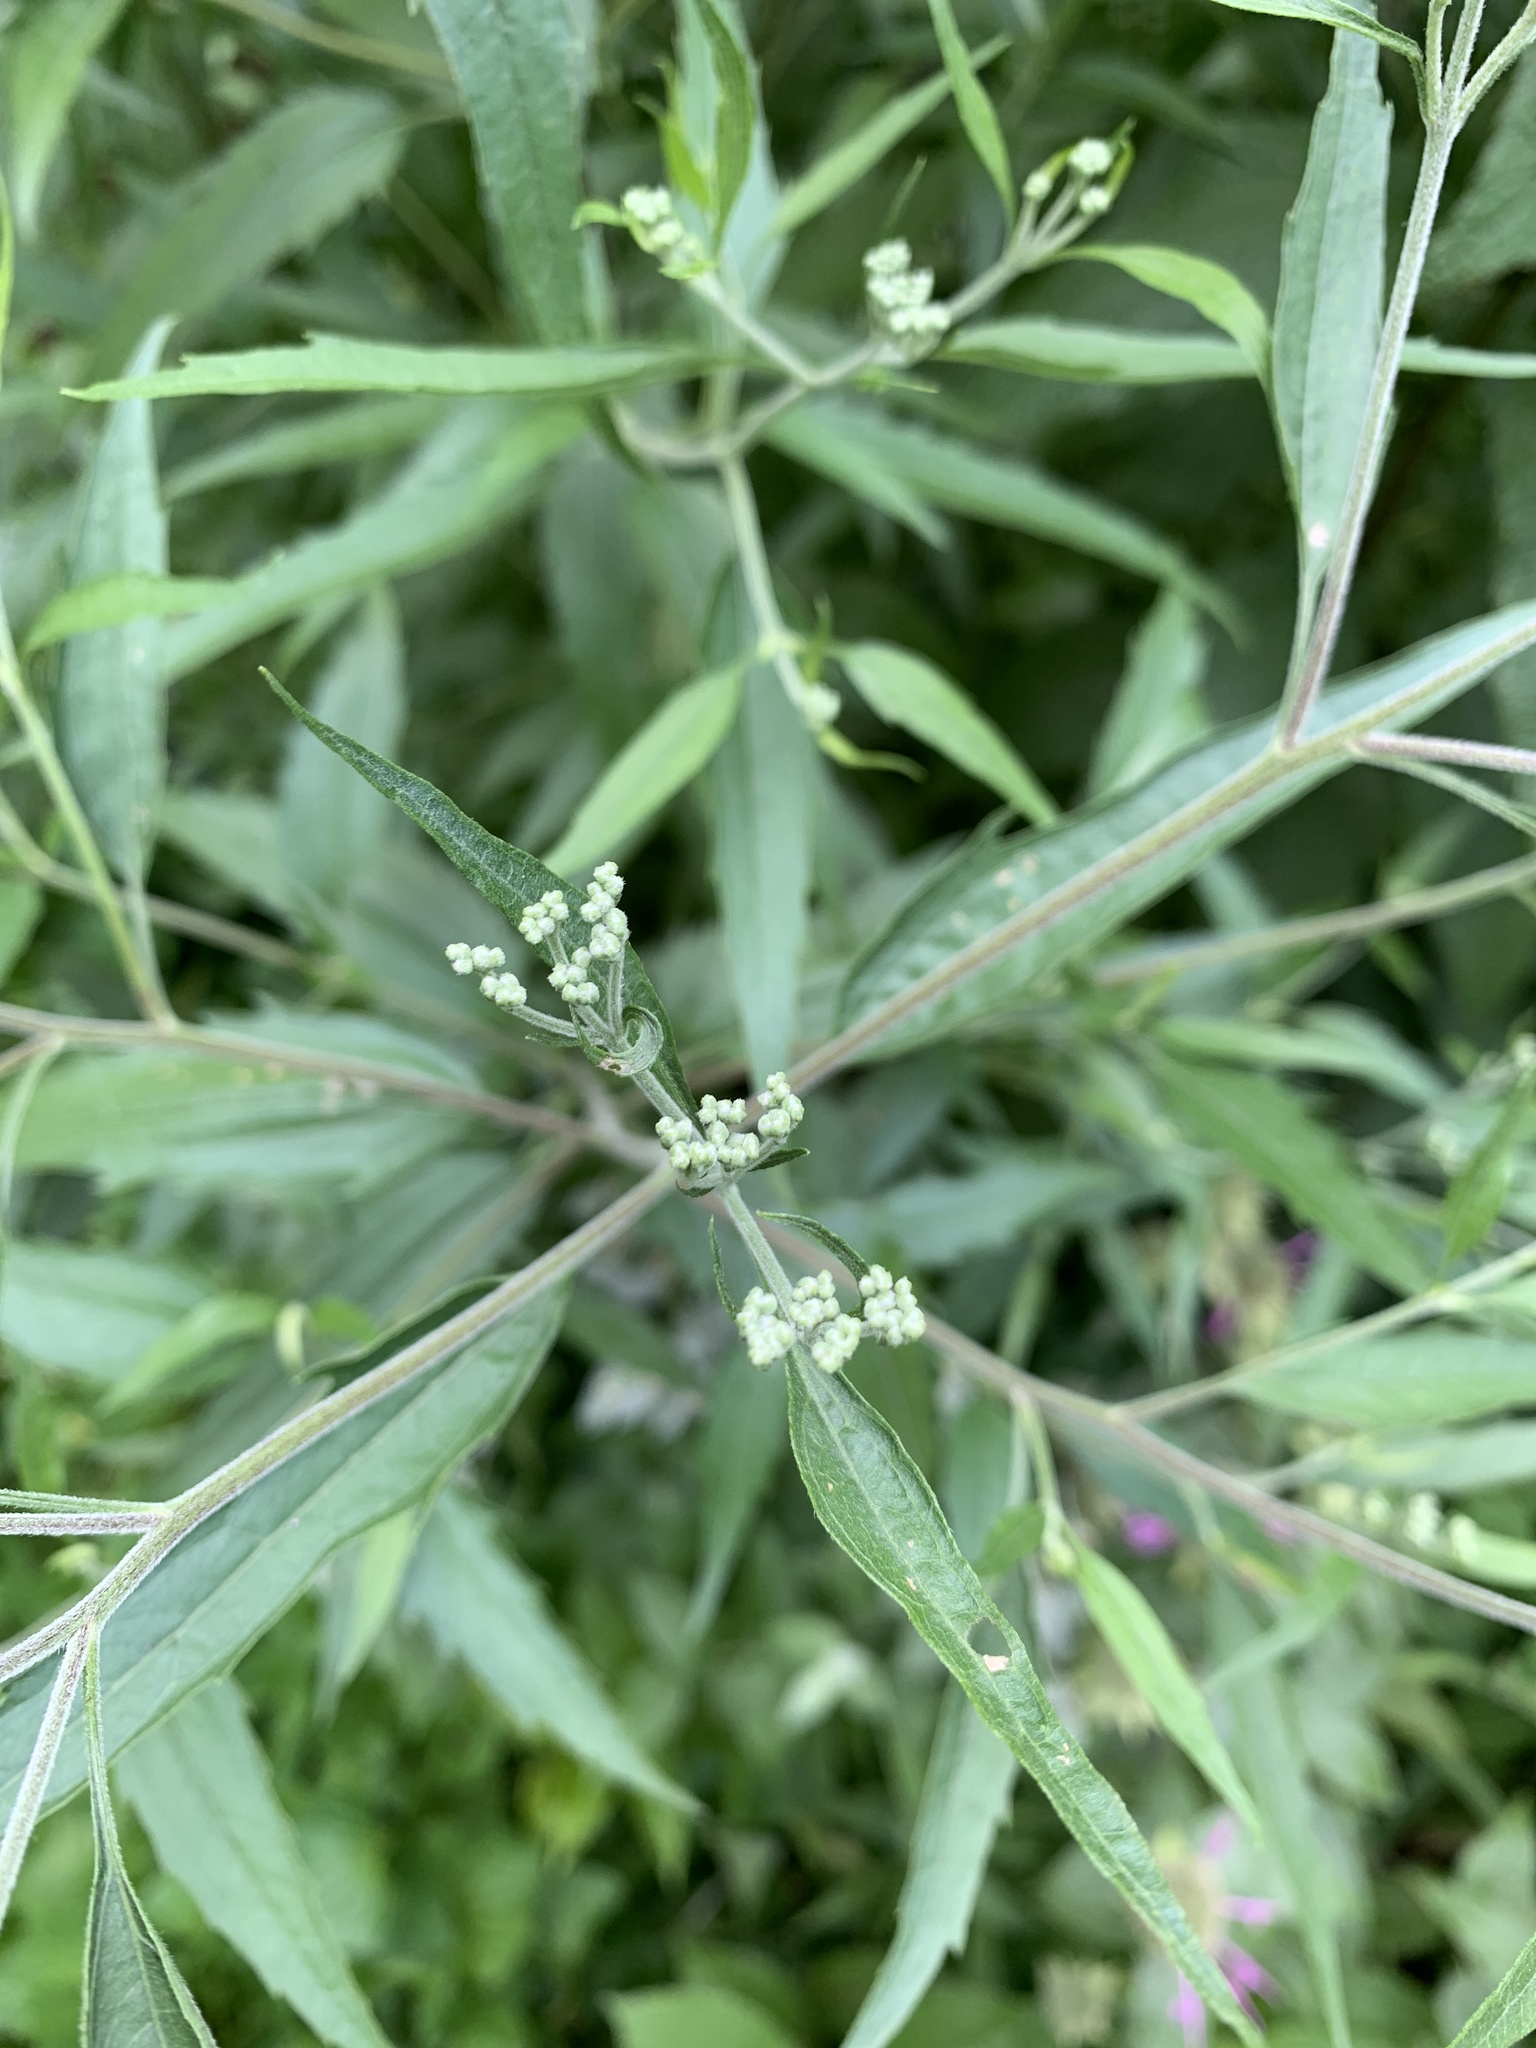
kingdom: Plantae
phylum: Tracheophyta
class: Magnoliopsida
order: Asterales
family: Asteraceae
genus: Eupatorium
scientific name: Eupatorium serotinum
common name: Late boneset
